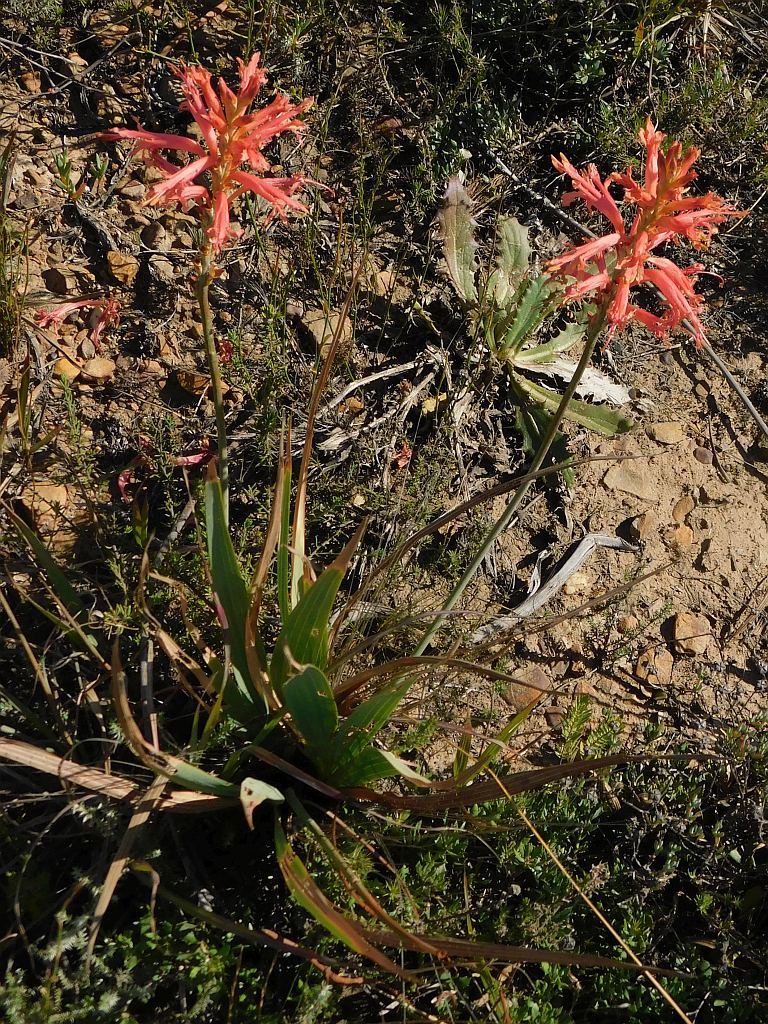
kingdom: Plantae
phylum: Tracheophyta
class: Liliopsida
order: Asparagales
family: Iridaceae
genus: Tritoniopsis
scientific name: Tritoniopsis antholyza
